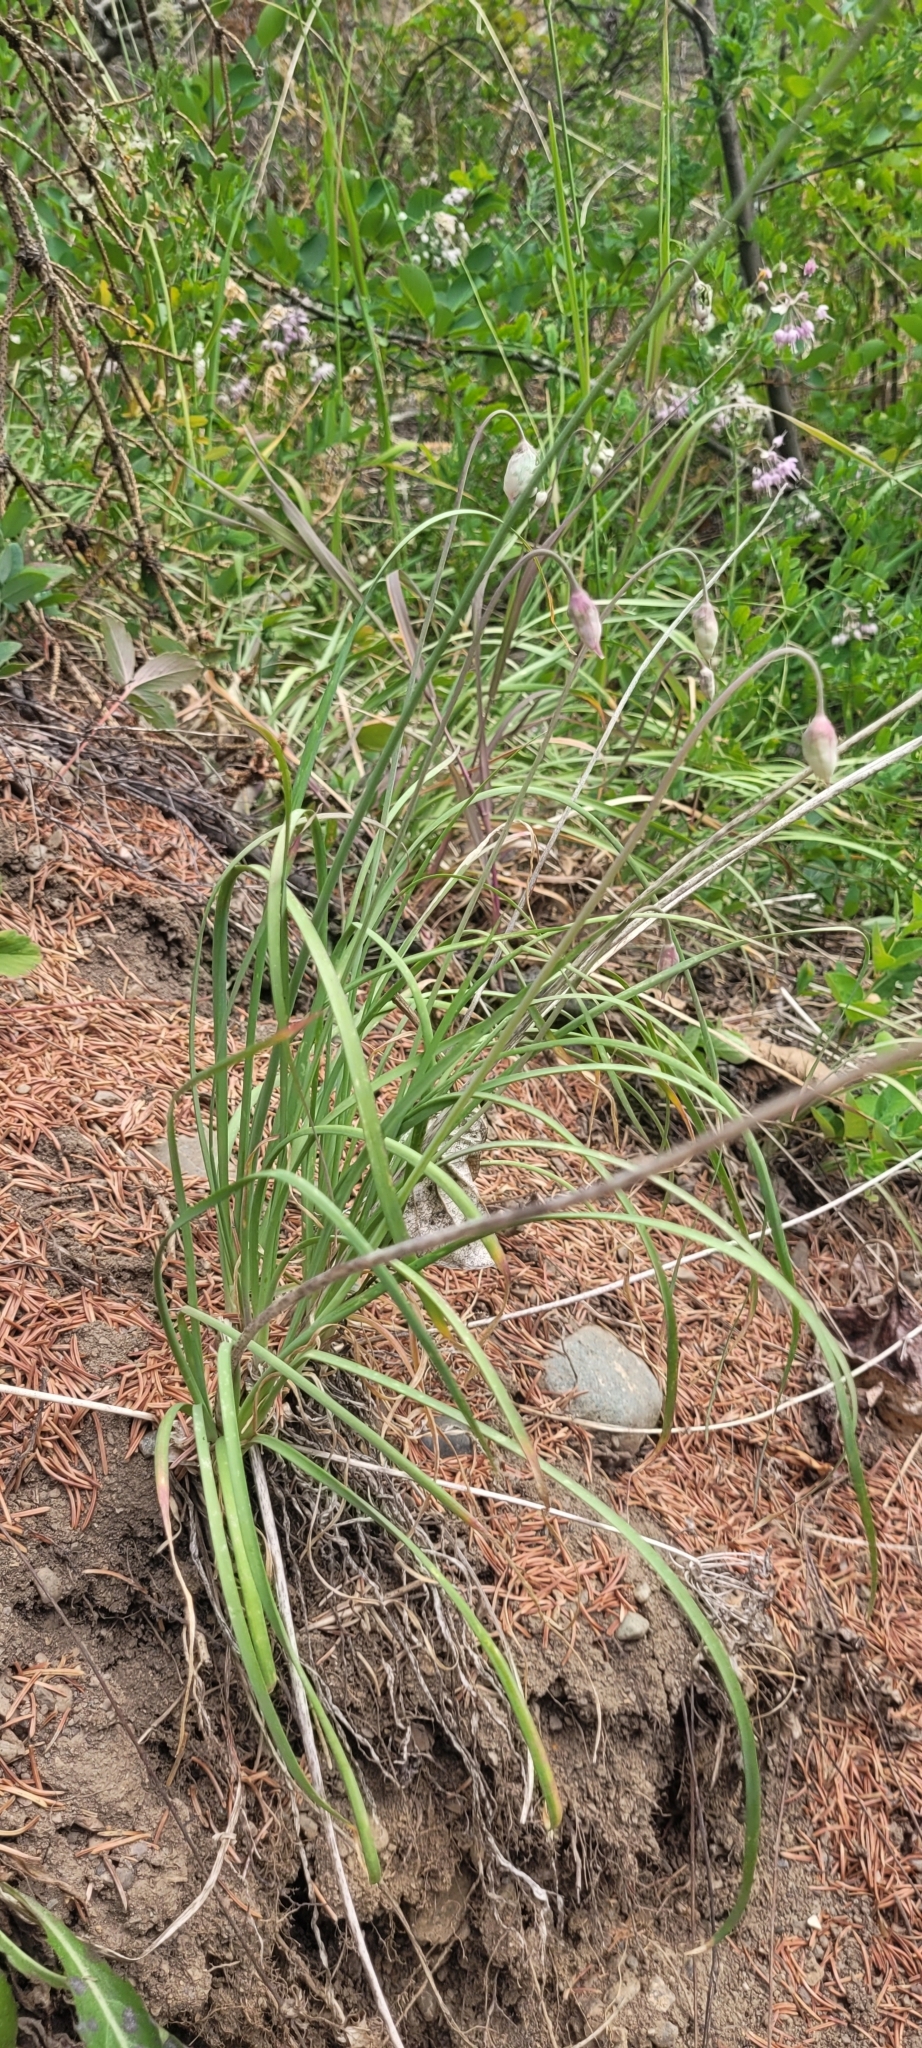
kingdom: Plantae
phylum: Tracheophyta
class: Liliopsida
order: Asparagales
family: Amaryllidaceae
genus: Allium
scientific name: Allium cernuum
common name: Nodding onion
